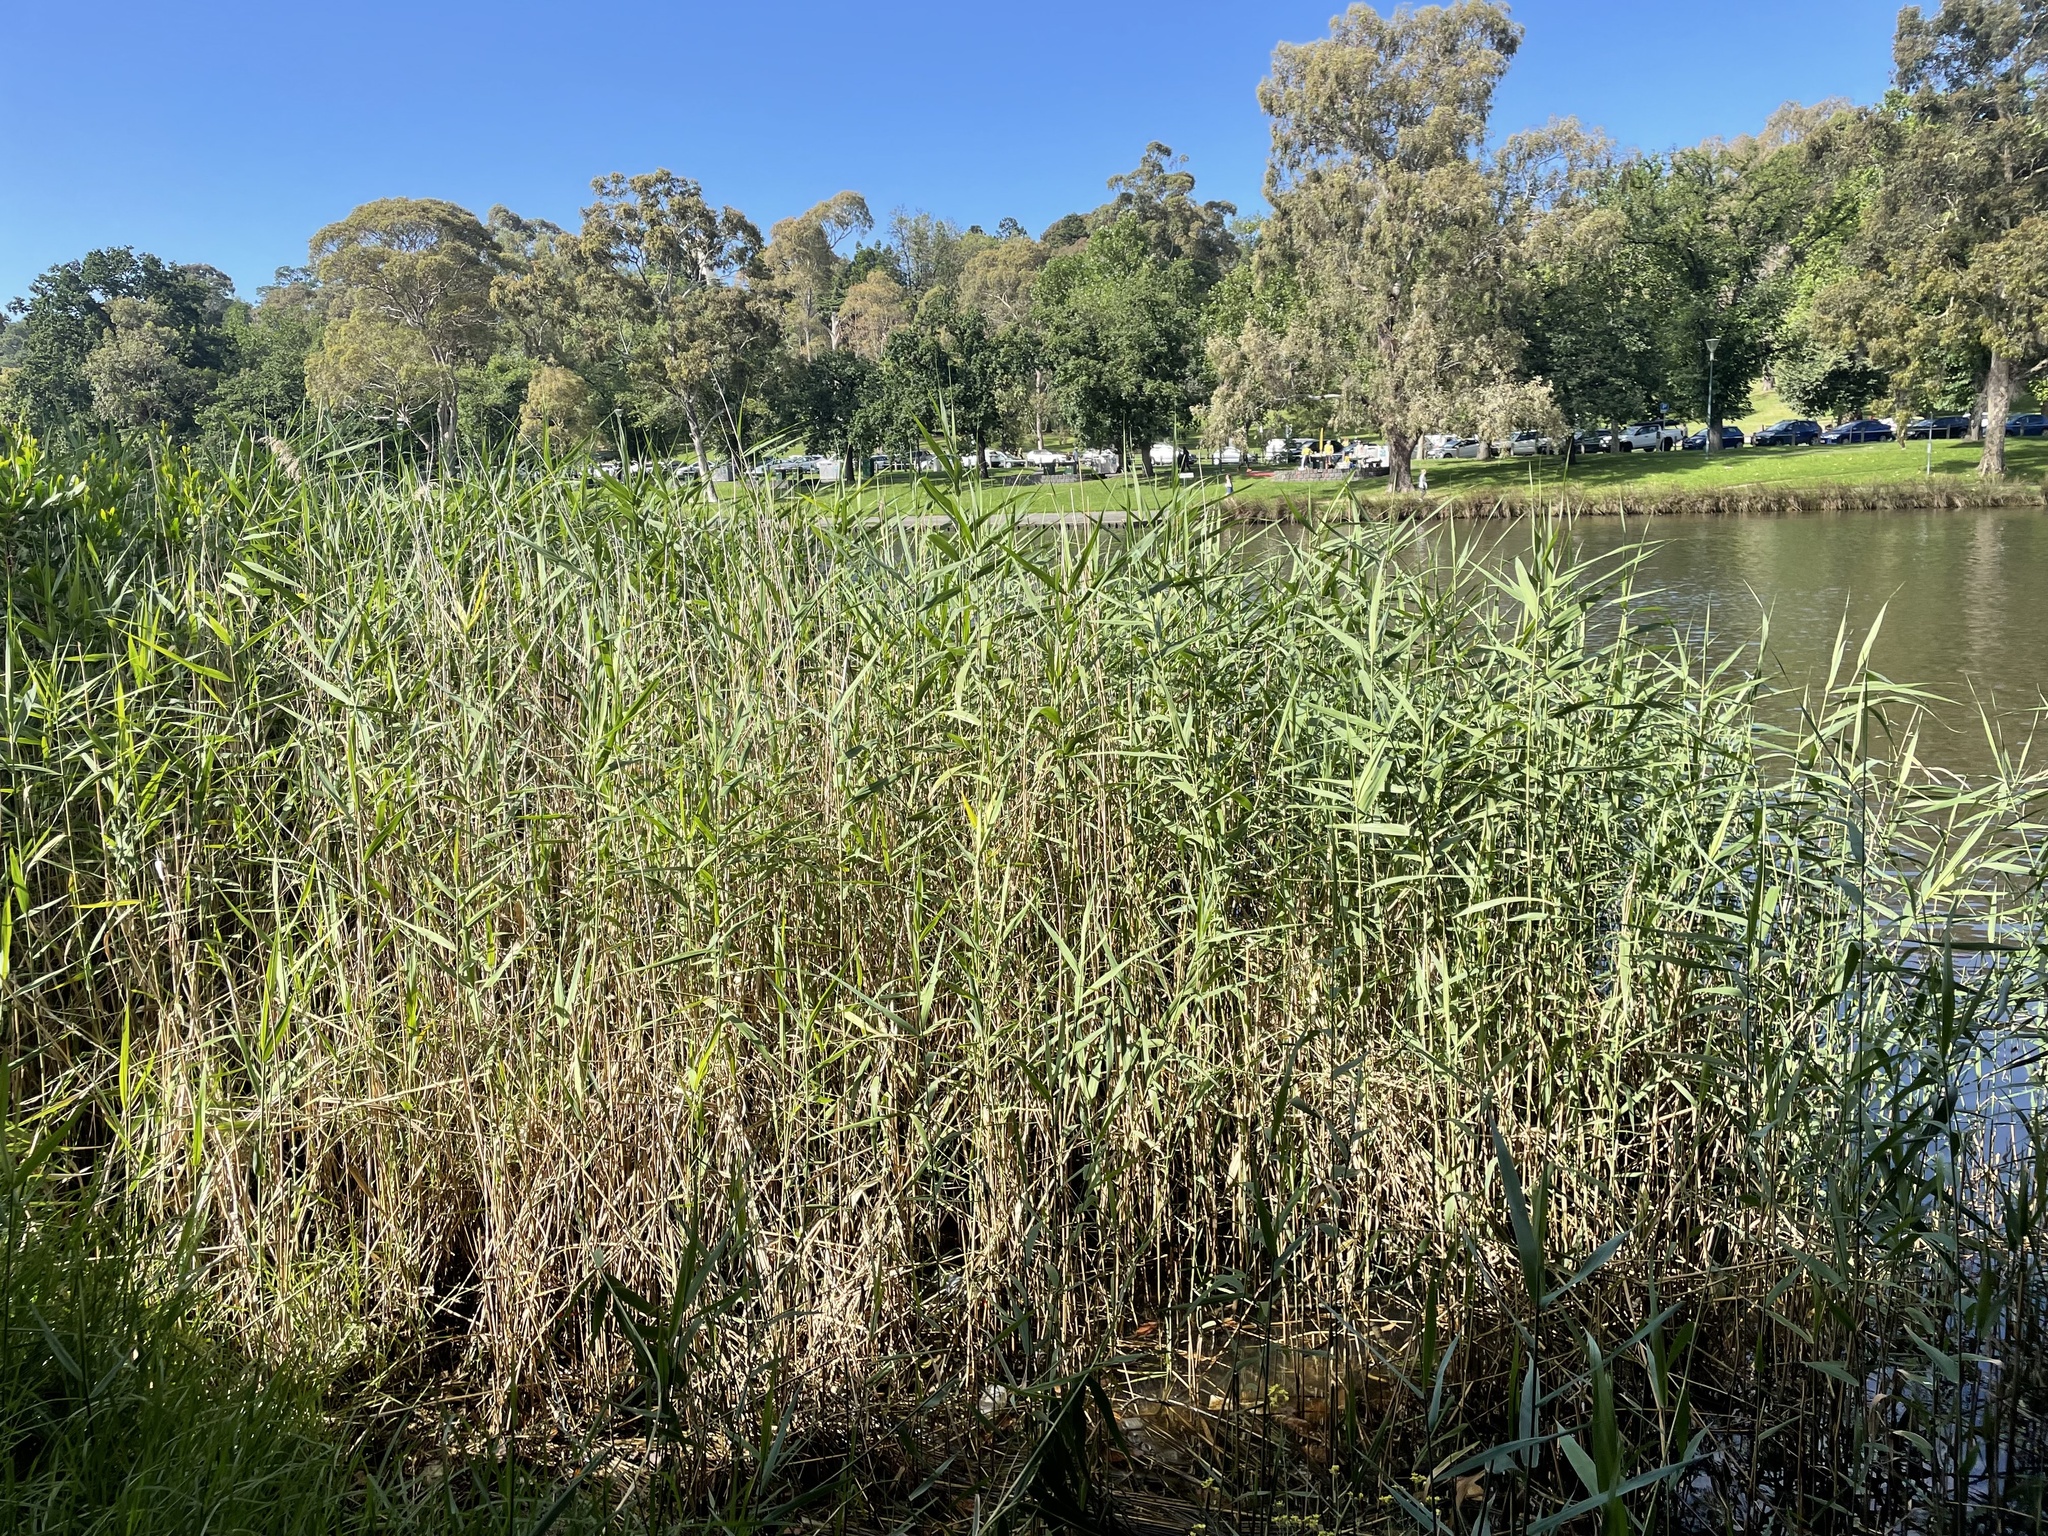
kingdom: Plantae
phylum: Tracheophyta
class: Liliopsida
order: Poales
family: Poaceae
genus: Phragmites
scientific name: Phragmites australis
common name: Common reed
